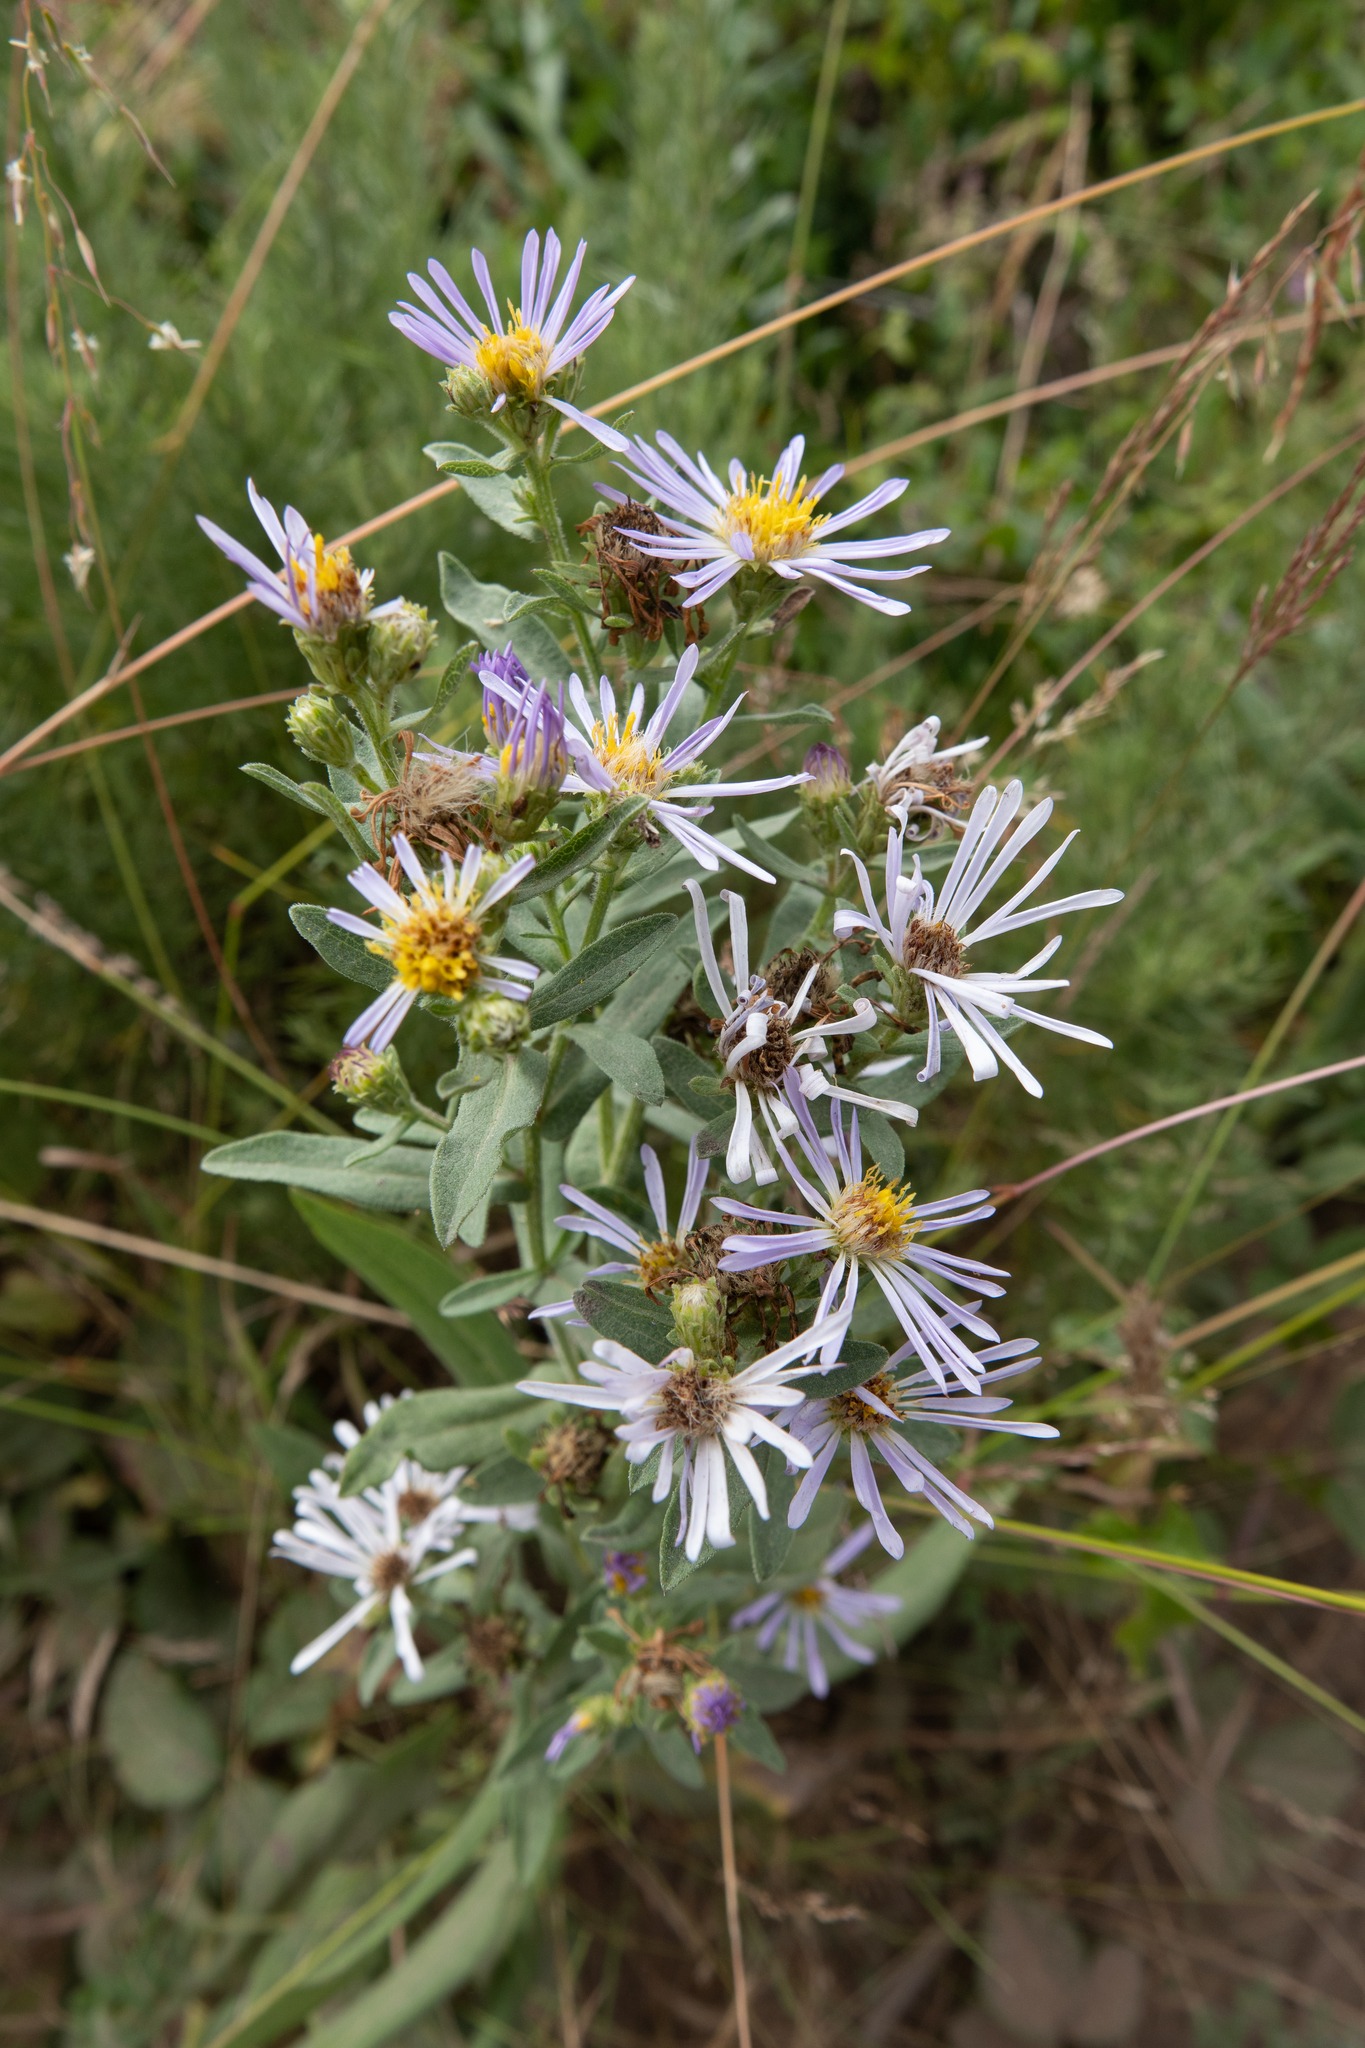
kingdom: Plantae
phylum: Tracheophyta
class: Magnoliopsida
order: Asterales
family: Asteraceae
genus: Symphyotrichum
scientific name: Symphyotrichum chilense
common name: Pacific aster
